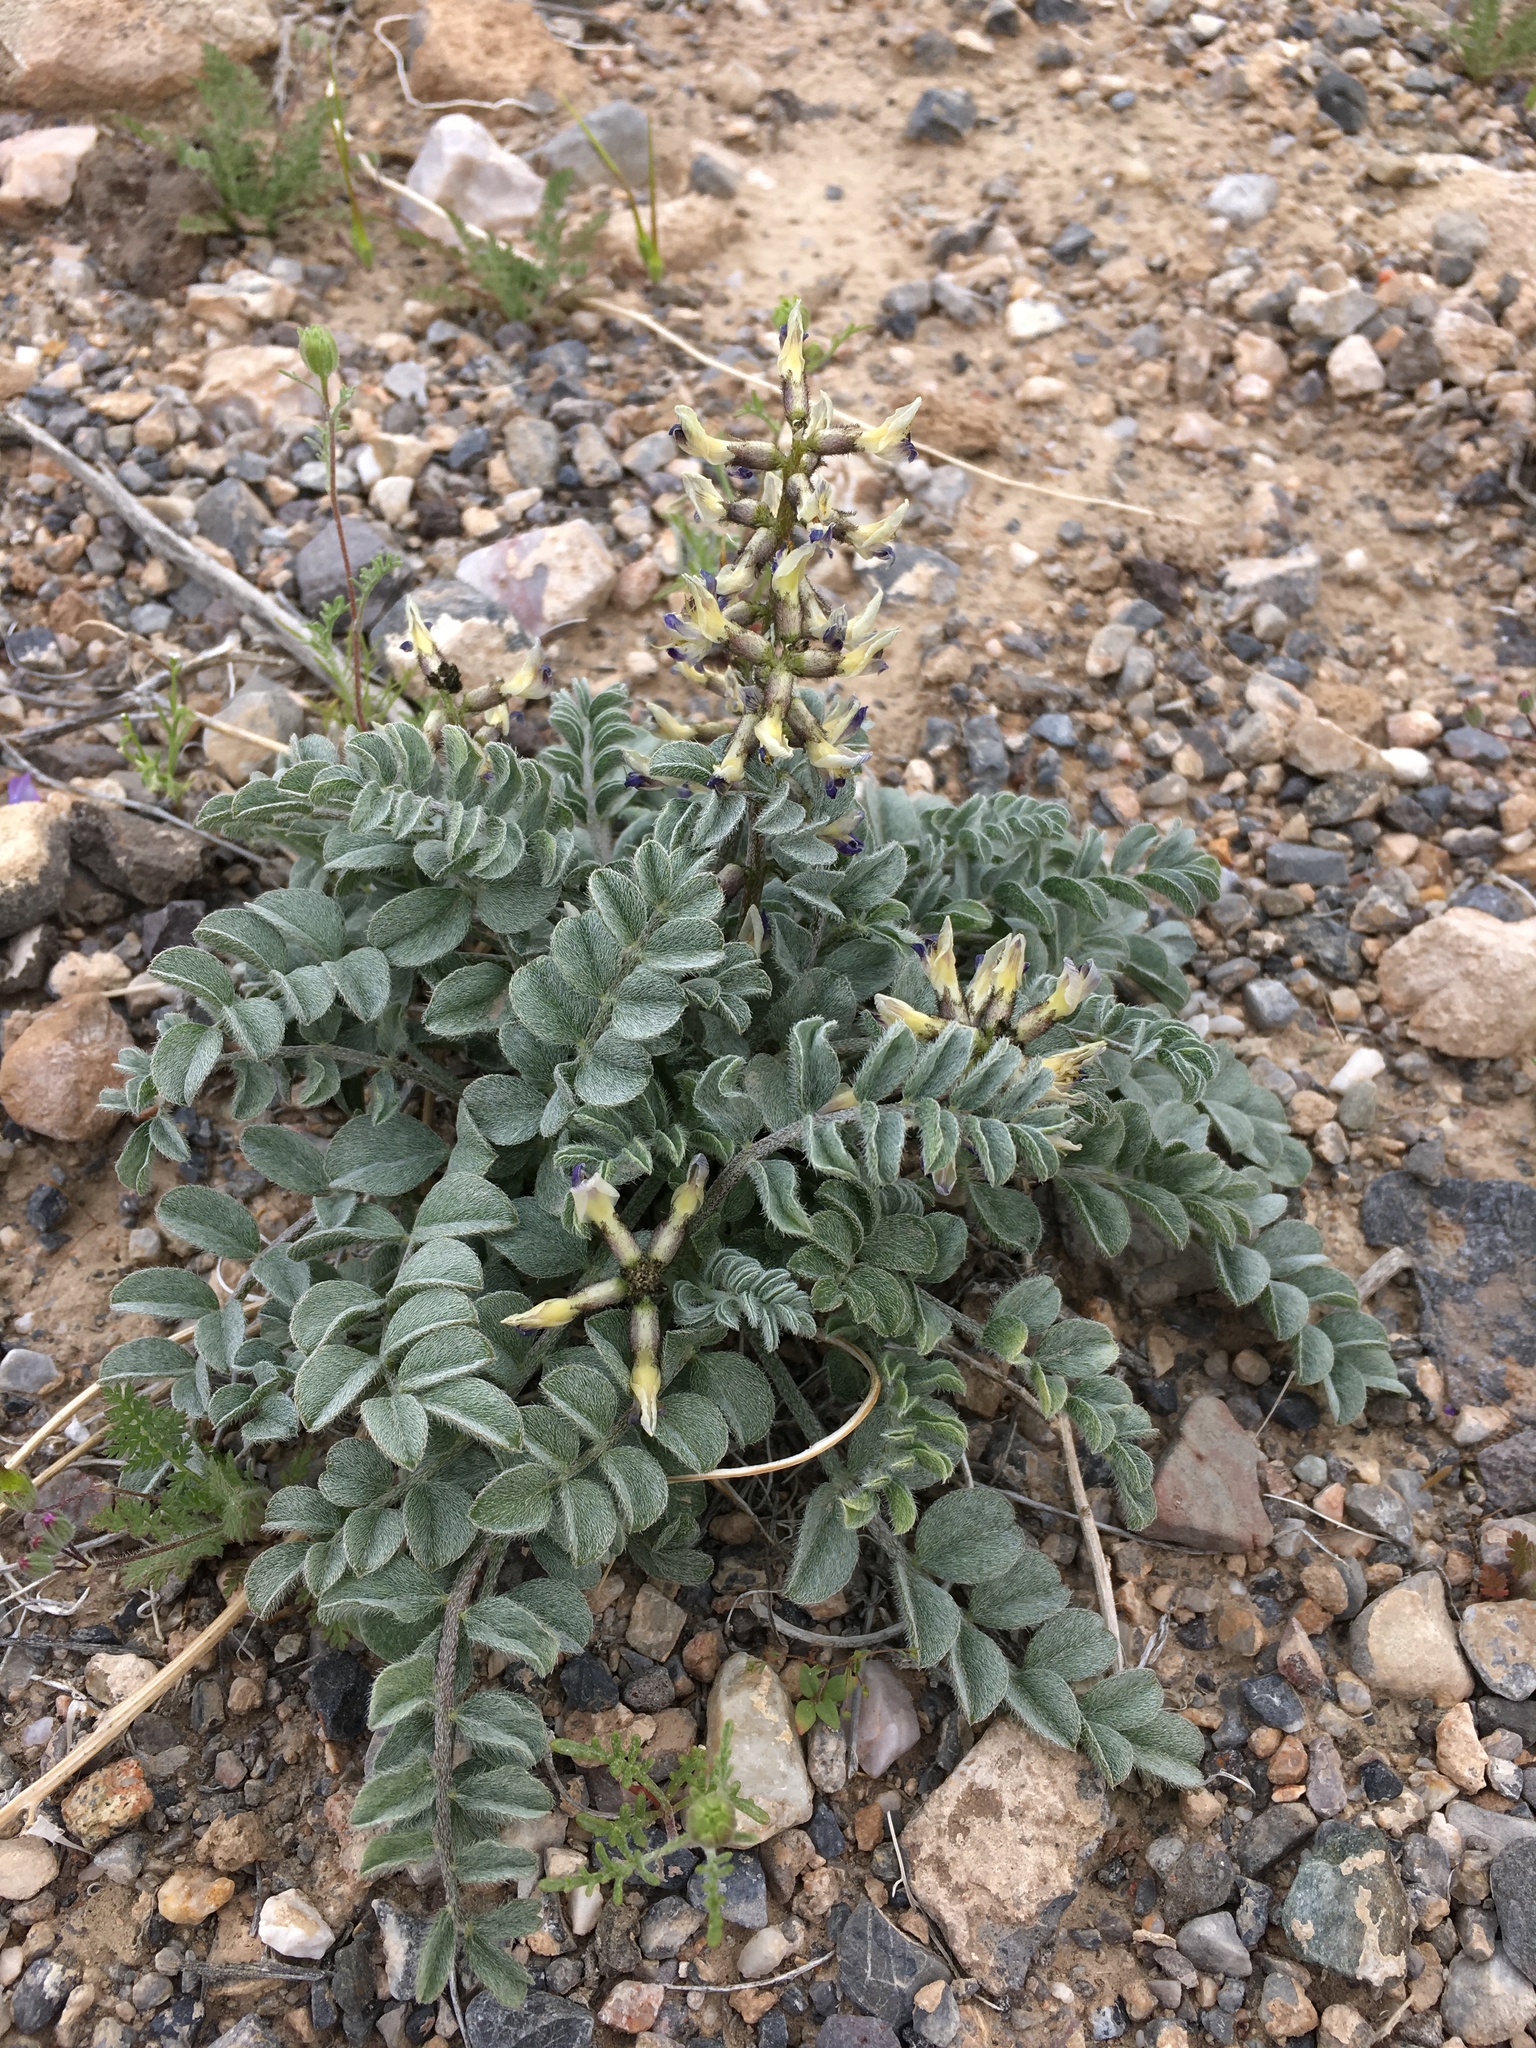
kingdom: Plantae
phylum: Tracheophyta
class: Magnoliopsida
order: Fabales
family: Fabaceae
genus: Astragalus
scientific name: Astragalus layneae
